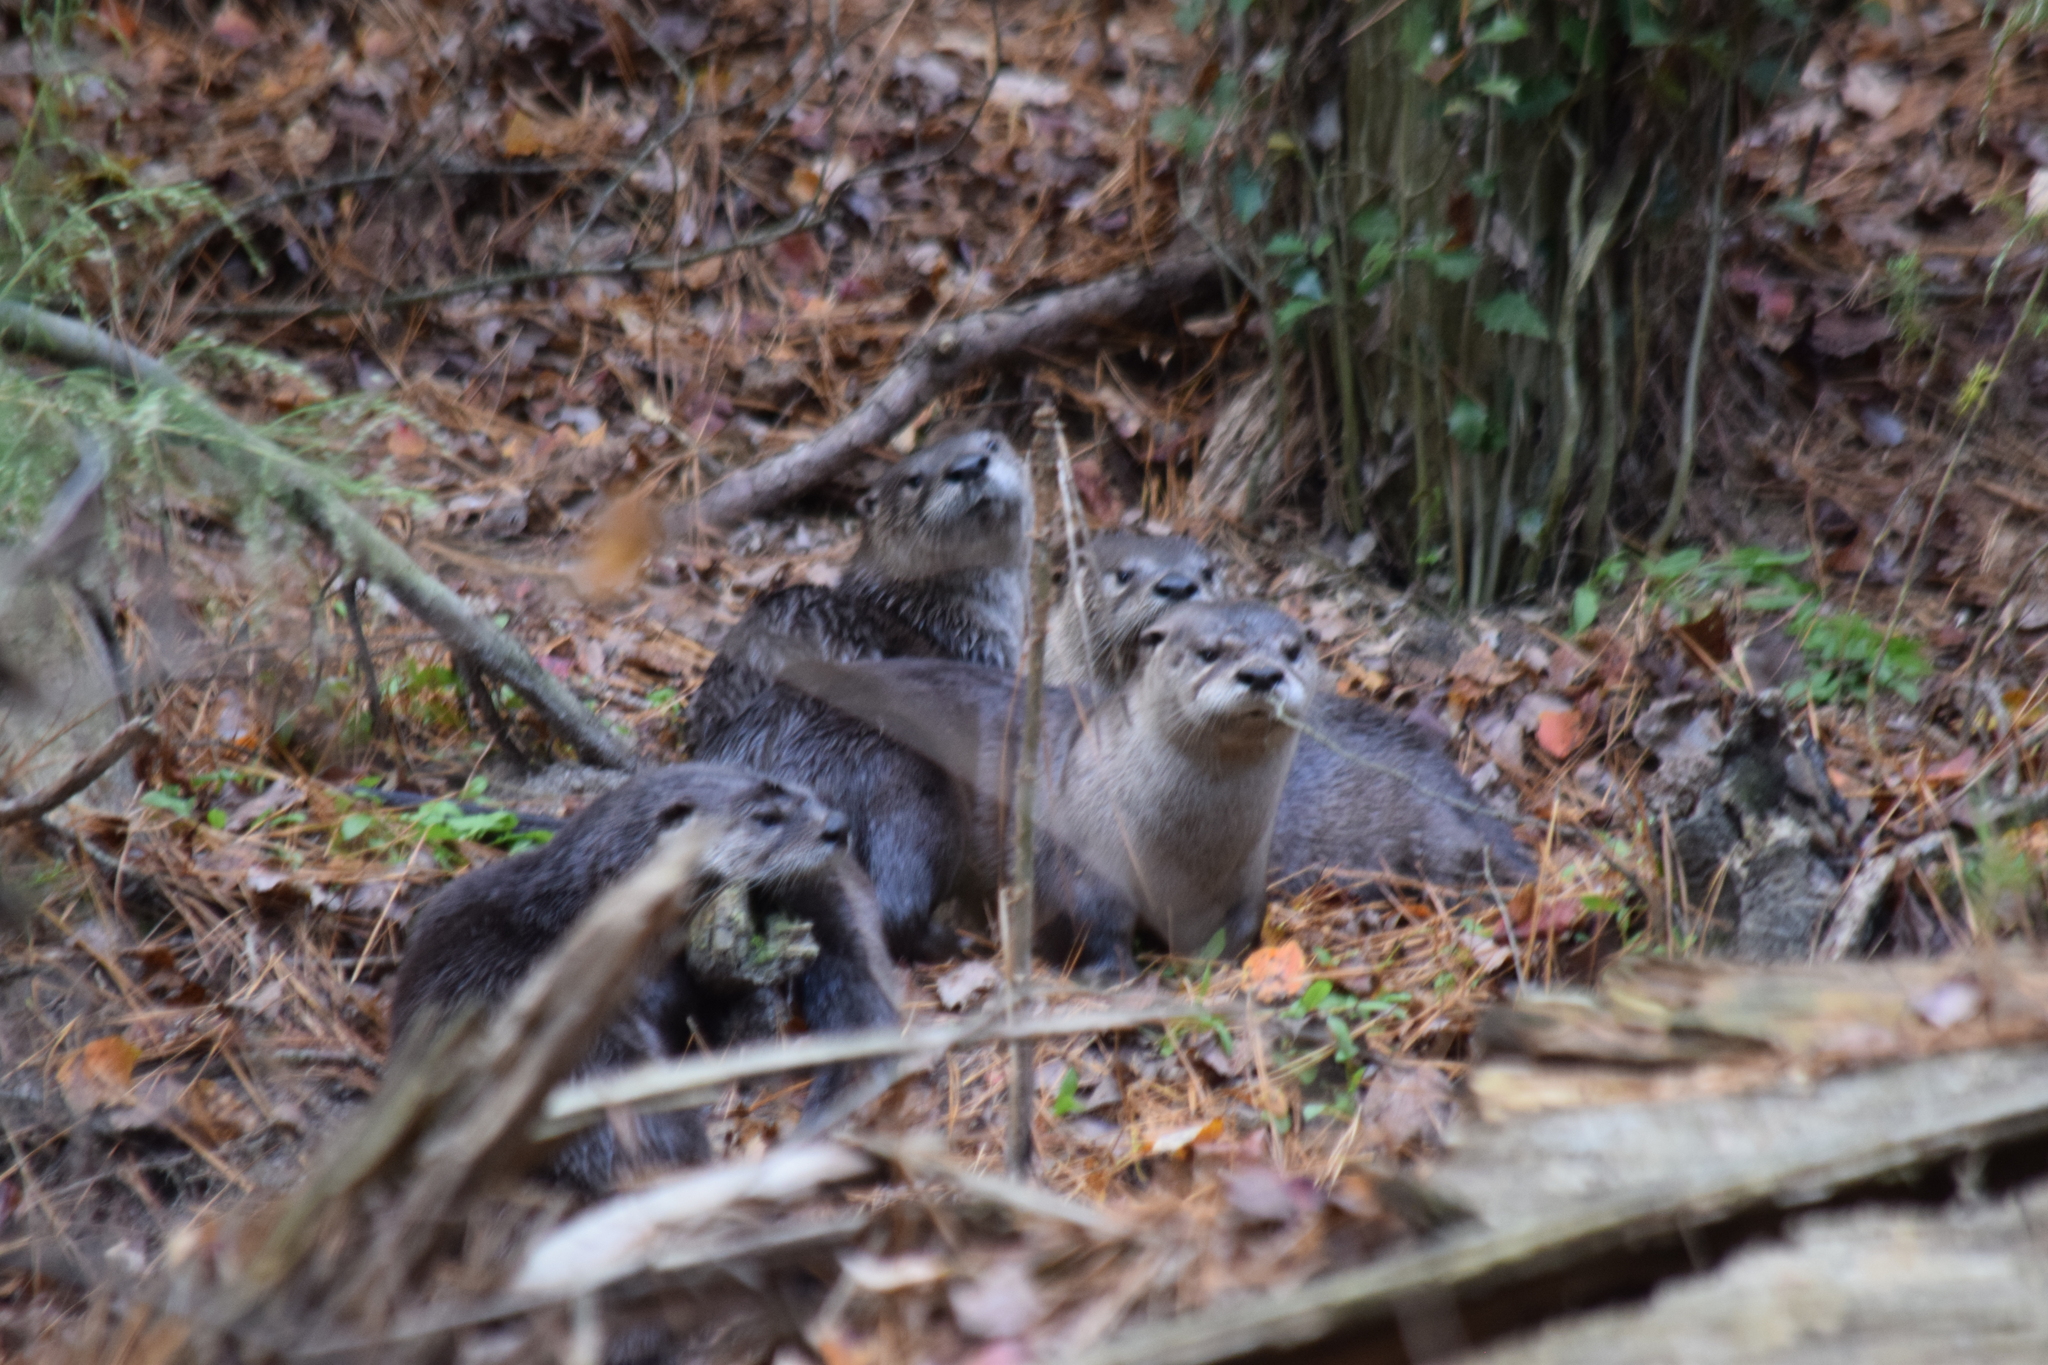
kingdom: Animalia
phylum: Chordata
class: Mammalia
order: Carnivora
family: Mustelidae
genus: Lontra
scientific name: Lontra canadensis
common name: North american river otter
